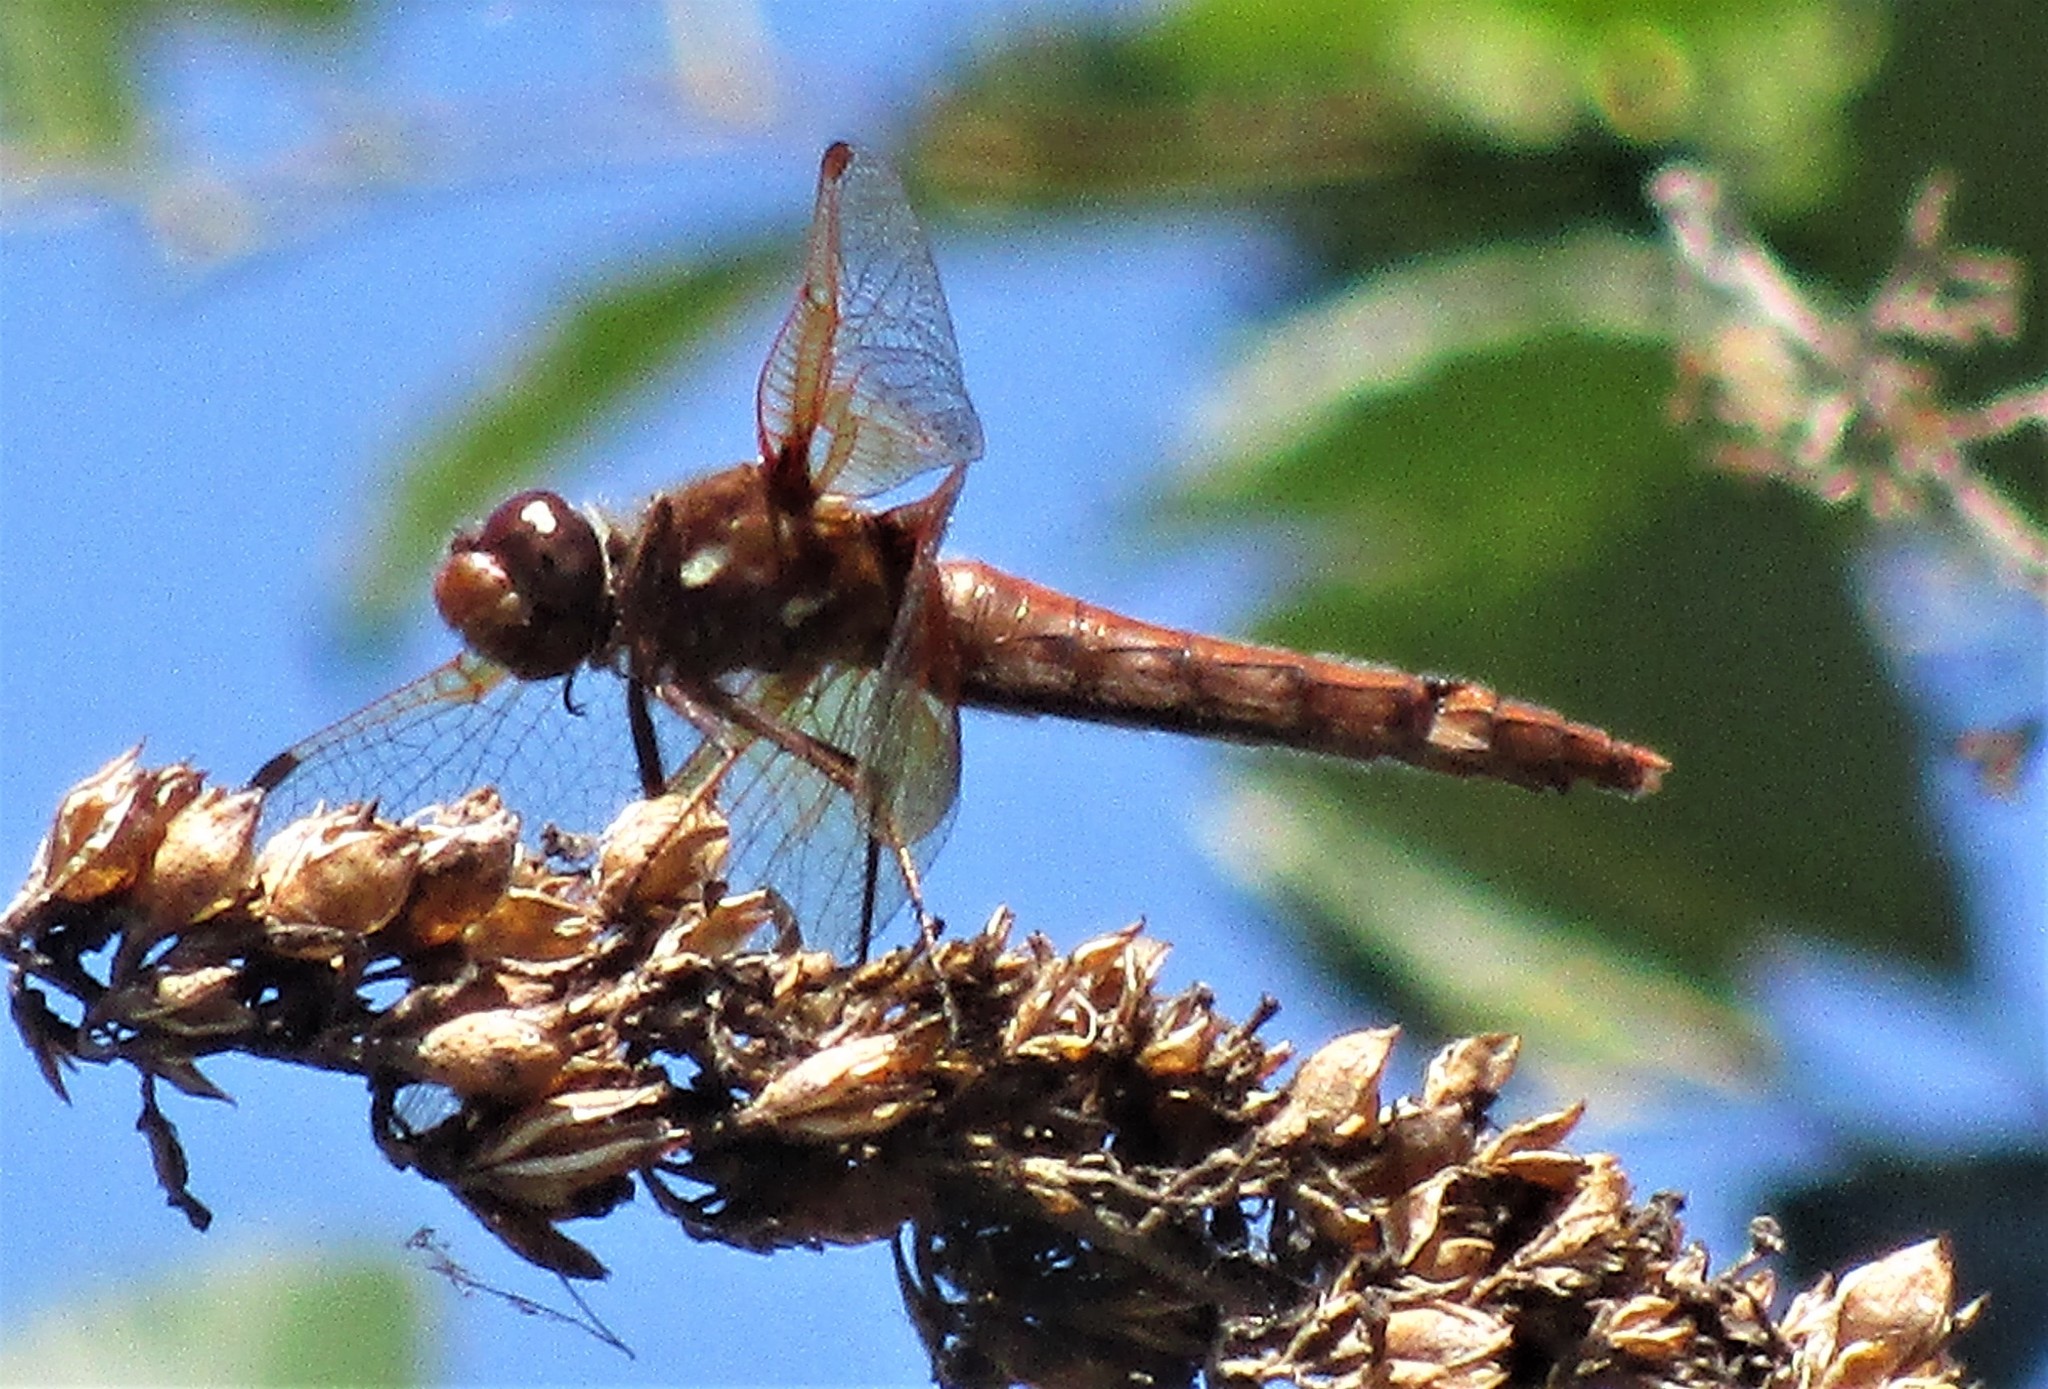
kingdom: Animalia
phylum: Arthropoda
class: Insecta
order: Odonata
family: Libellulidae
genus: Sympetrum
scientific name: Sympetrum illotum
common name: Cardinal meadowhawk
